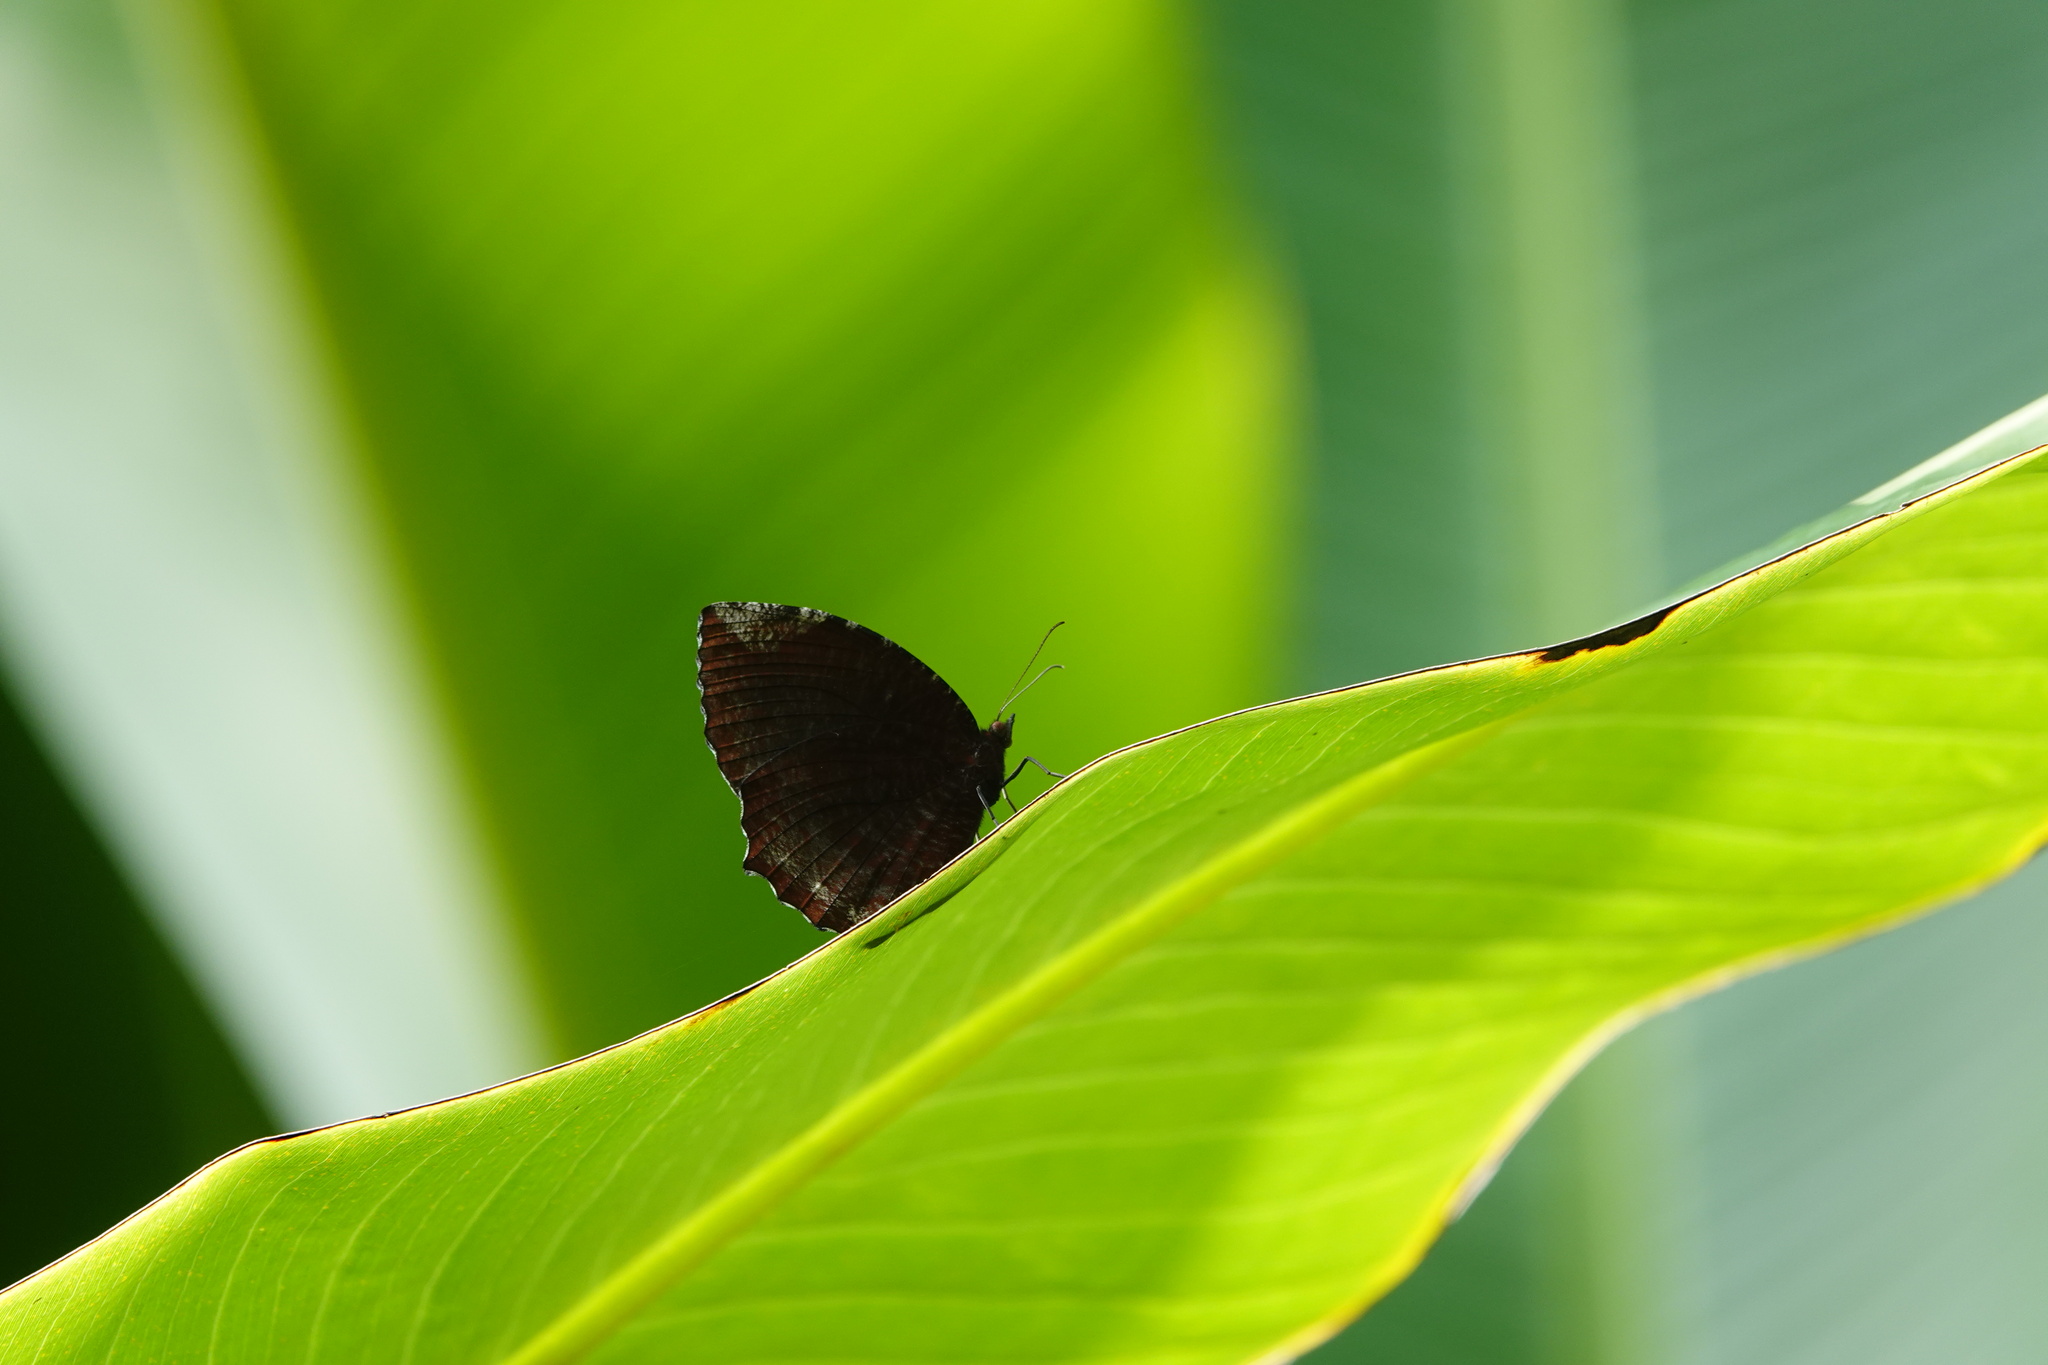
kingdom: Animalia
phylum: Arthropoda
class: Insecta
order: Lepidoptera
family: Nymphalidae
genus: Elymnias
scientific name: Elymnias hypermnestra
